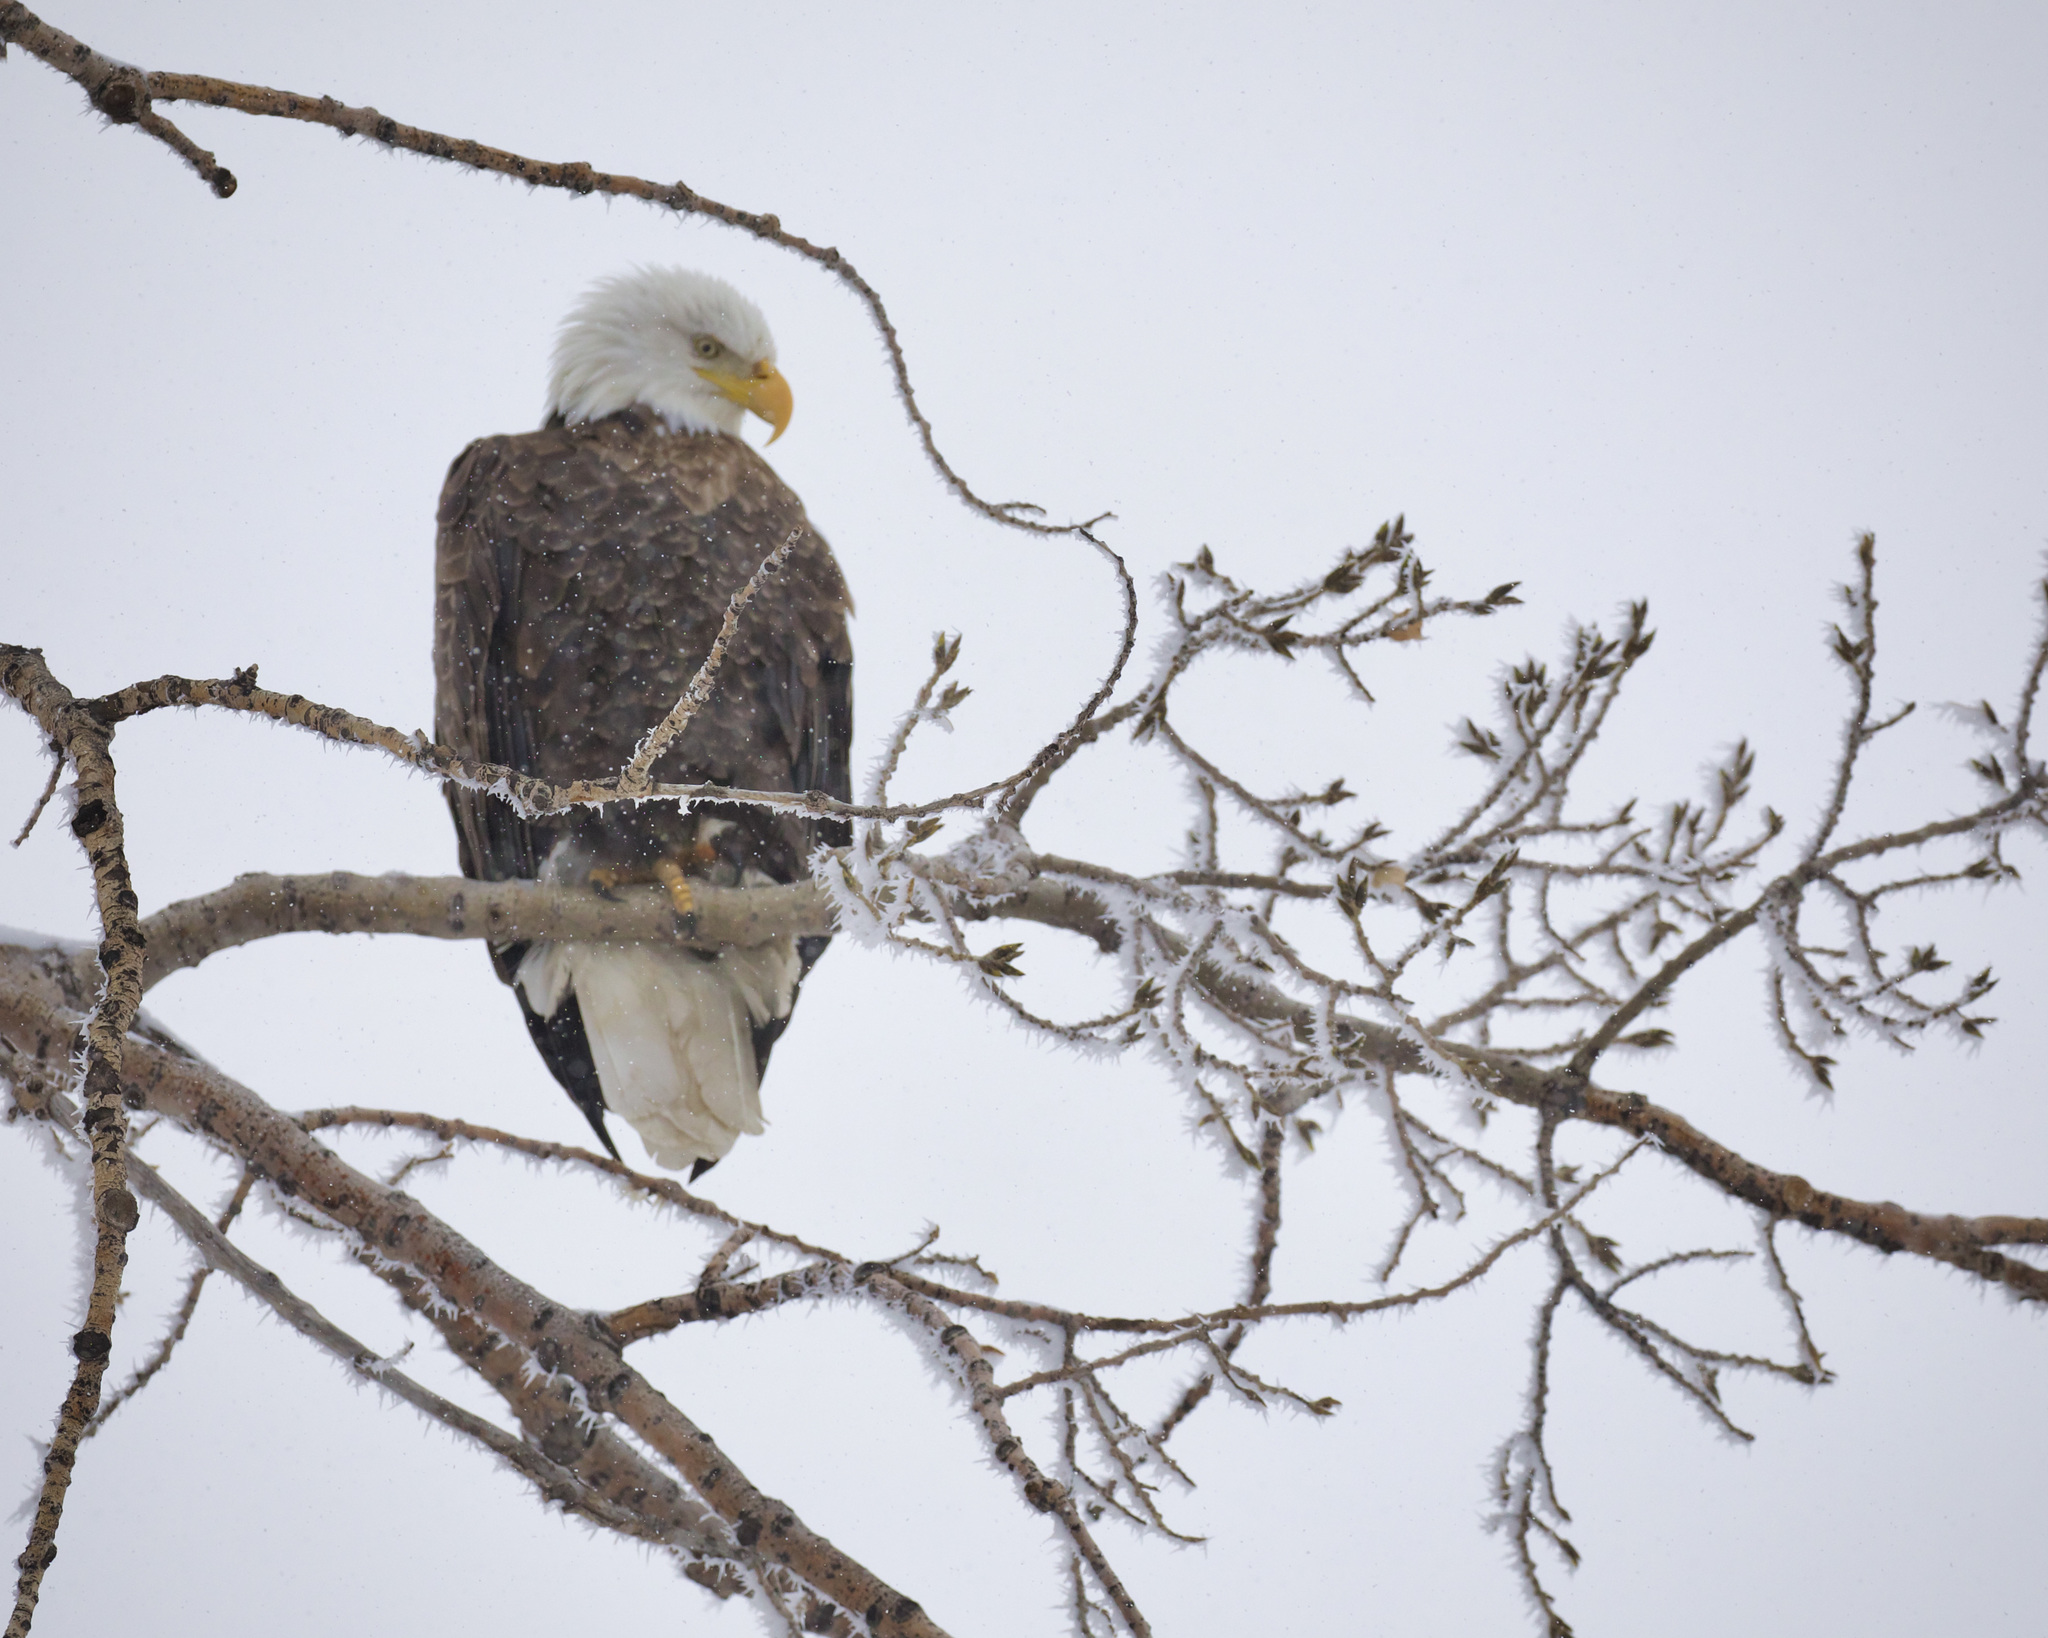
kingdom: Animalia
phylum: Chordata
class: Aves
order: Accipitriformes
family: Accipitridae
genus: Haliaeetus
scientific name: Haliaeetus leucocephalus
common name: Bald eagle
